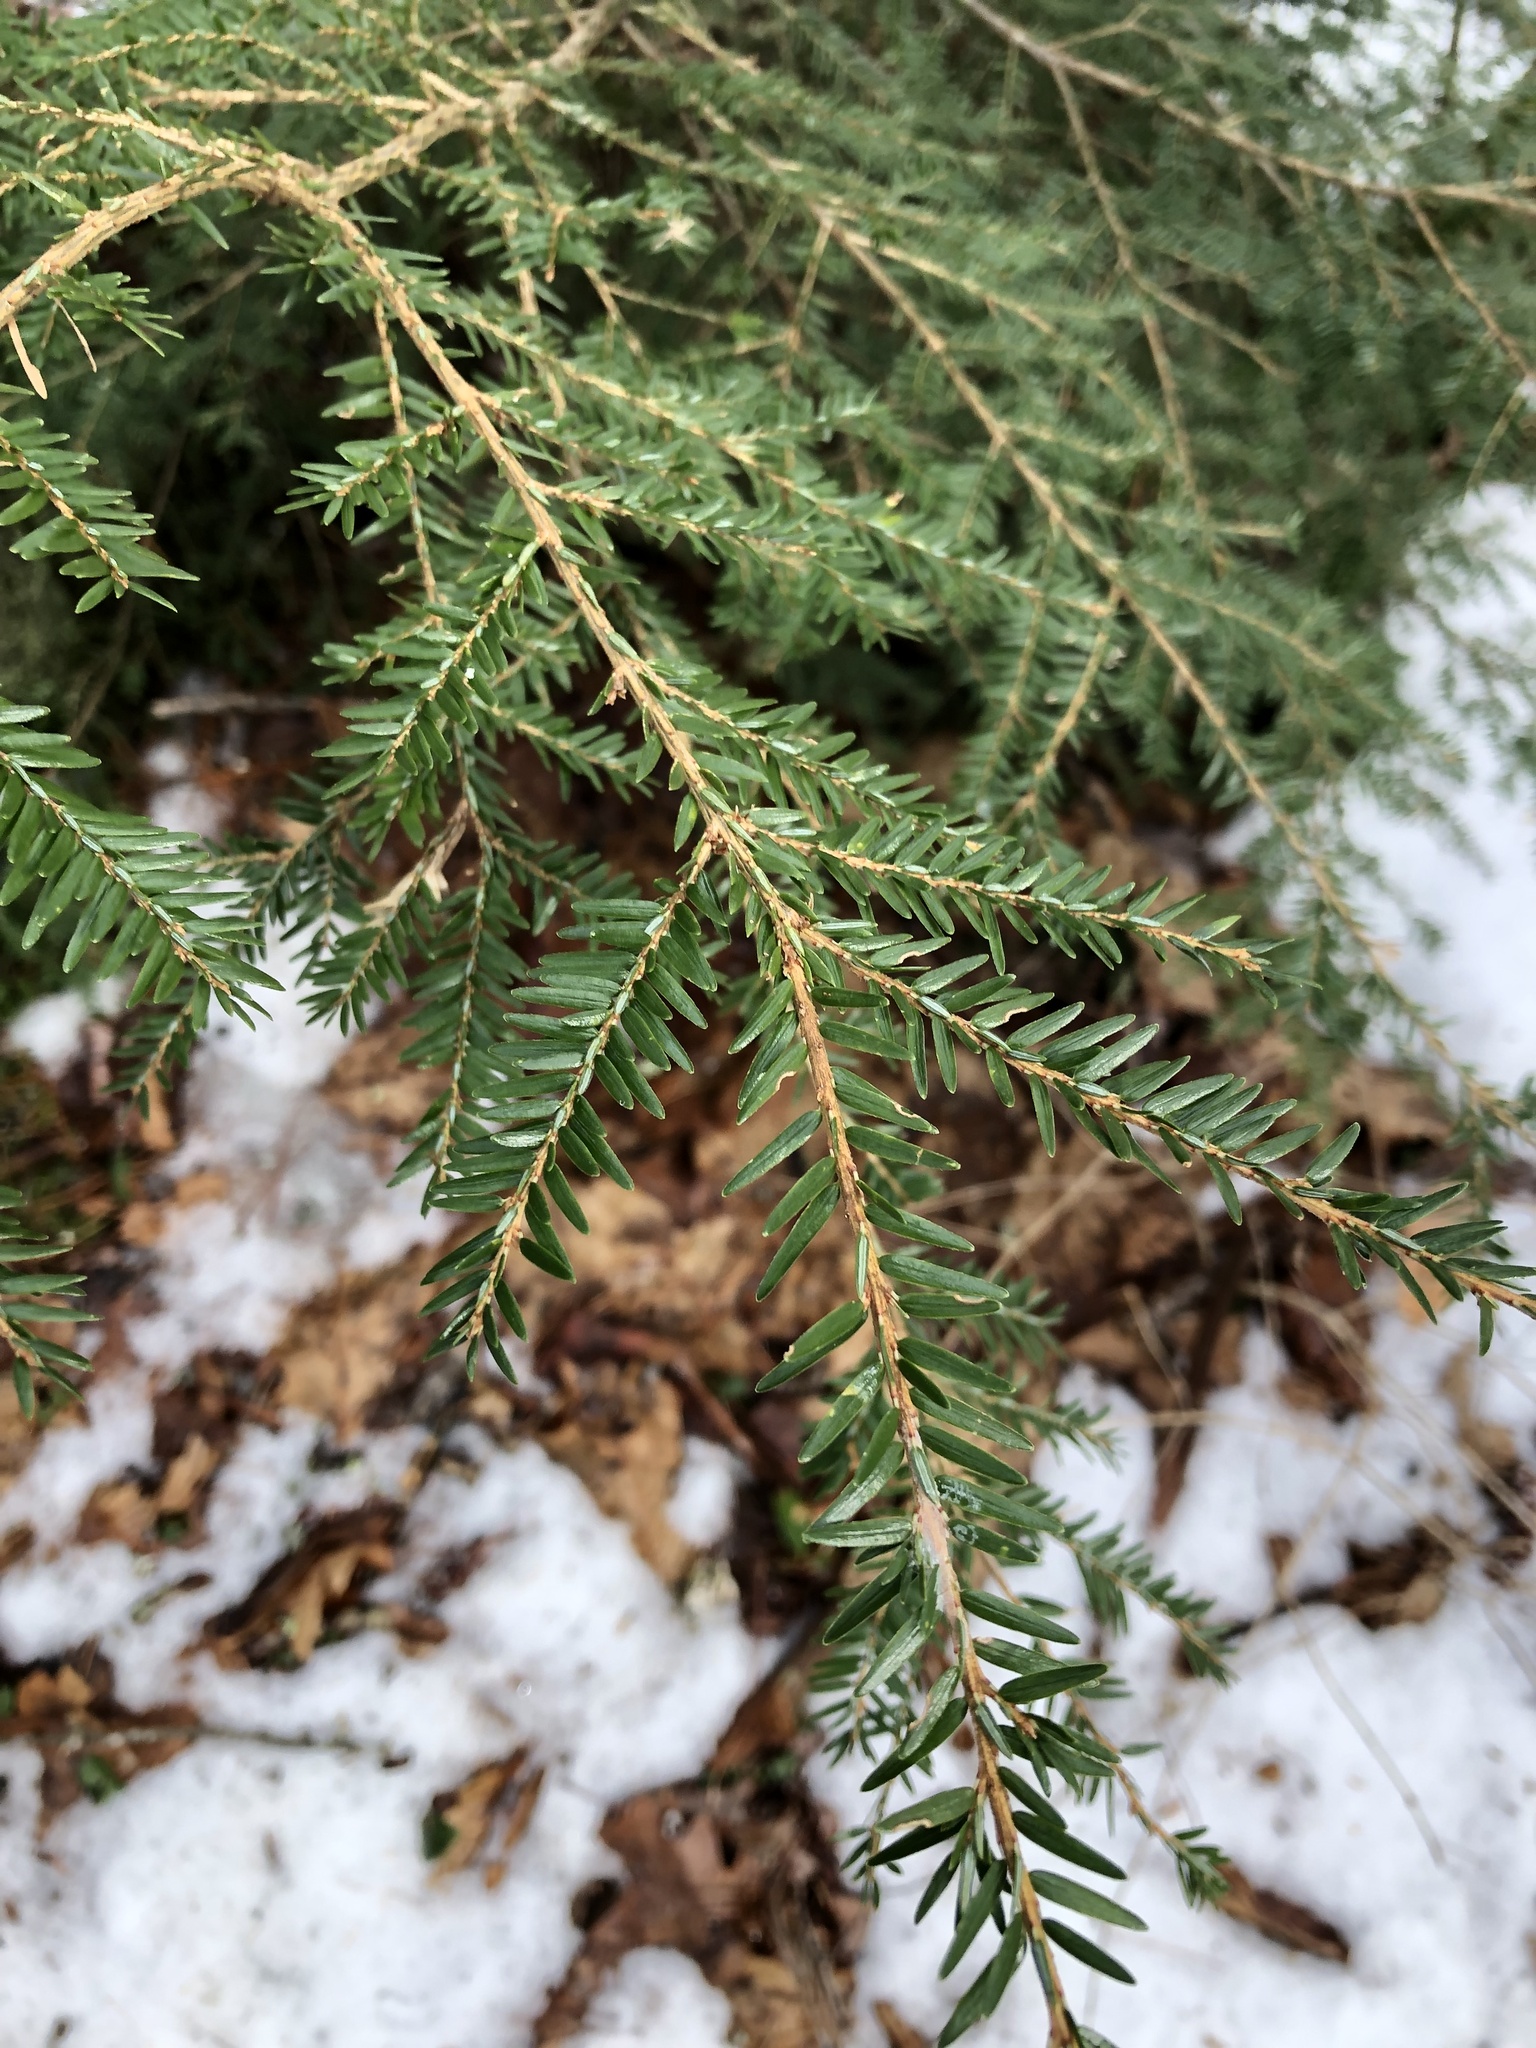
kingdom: Plantae
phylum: Tracheophyta
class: Pinopsida
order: Pinales
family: Pinaceae
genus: Tsuga
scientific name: Tsuga canadensis
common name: Eastern hemlock
